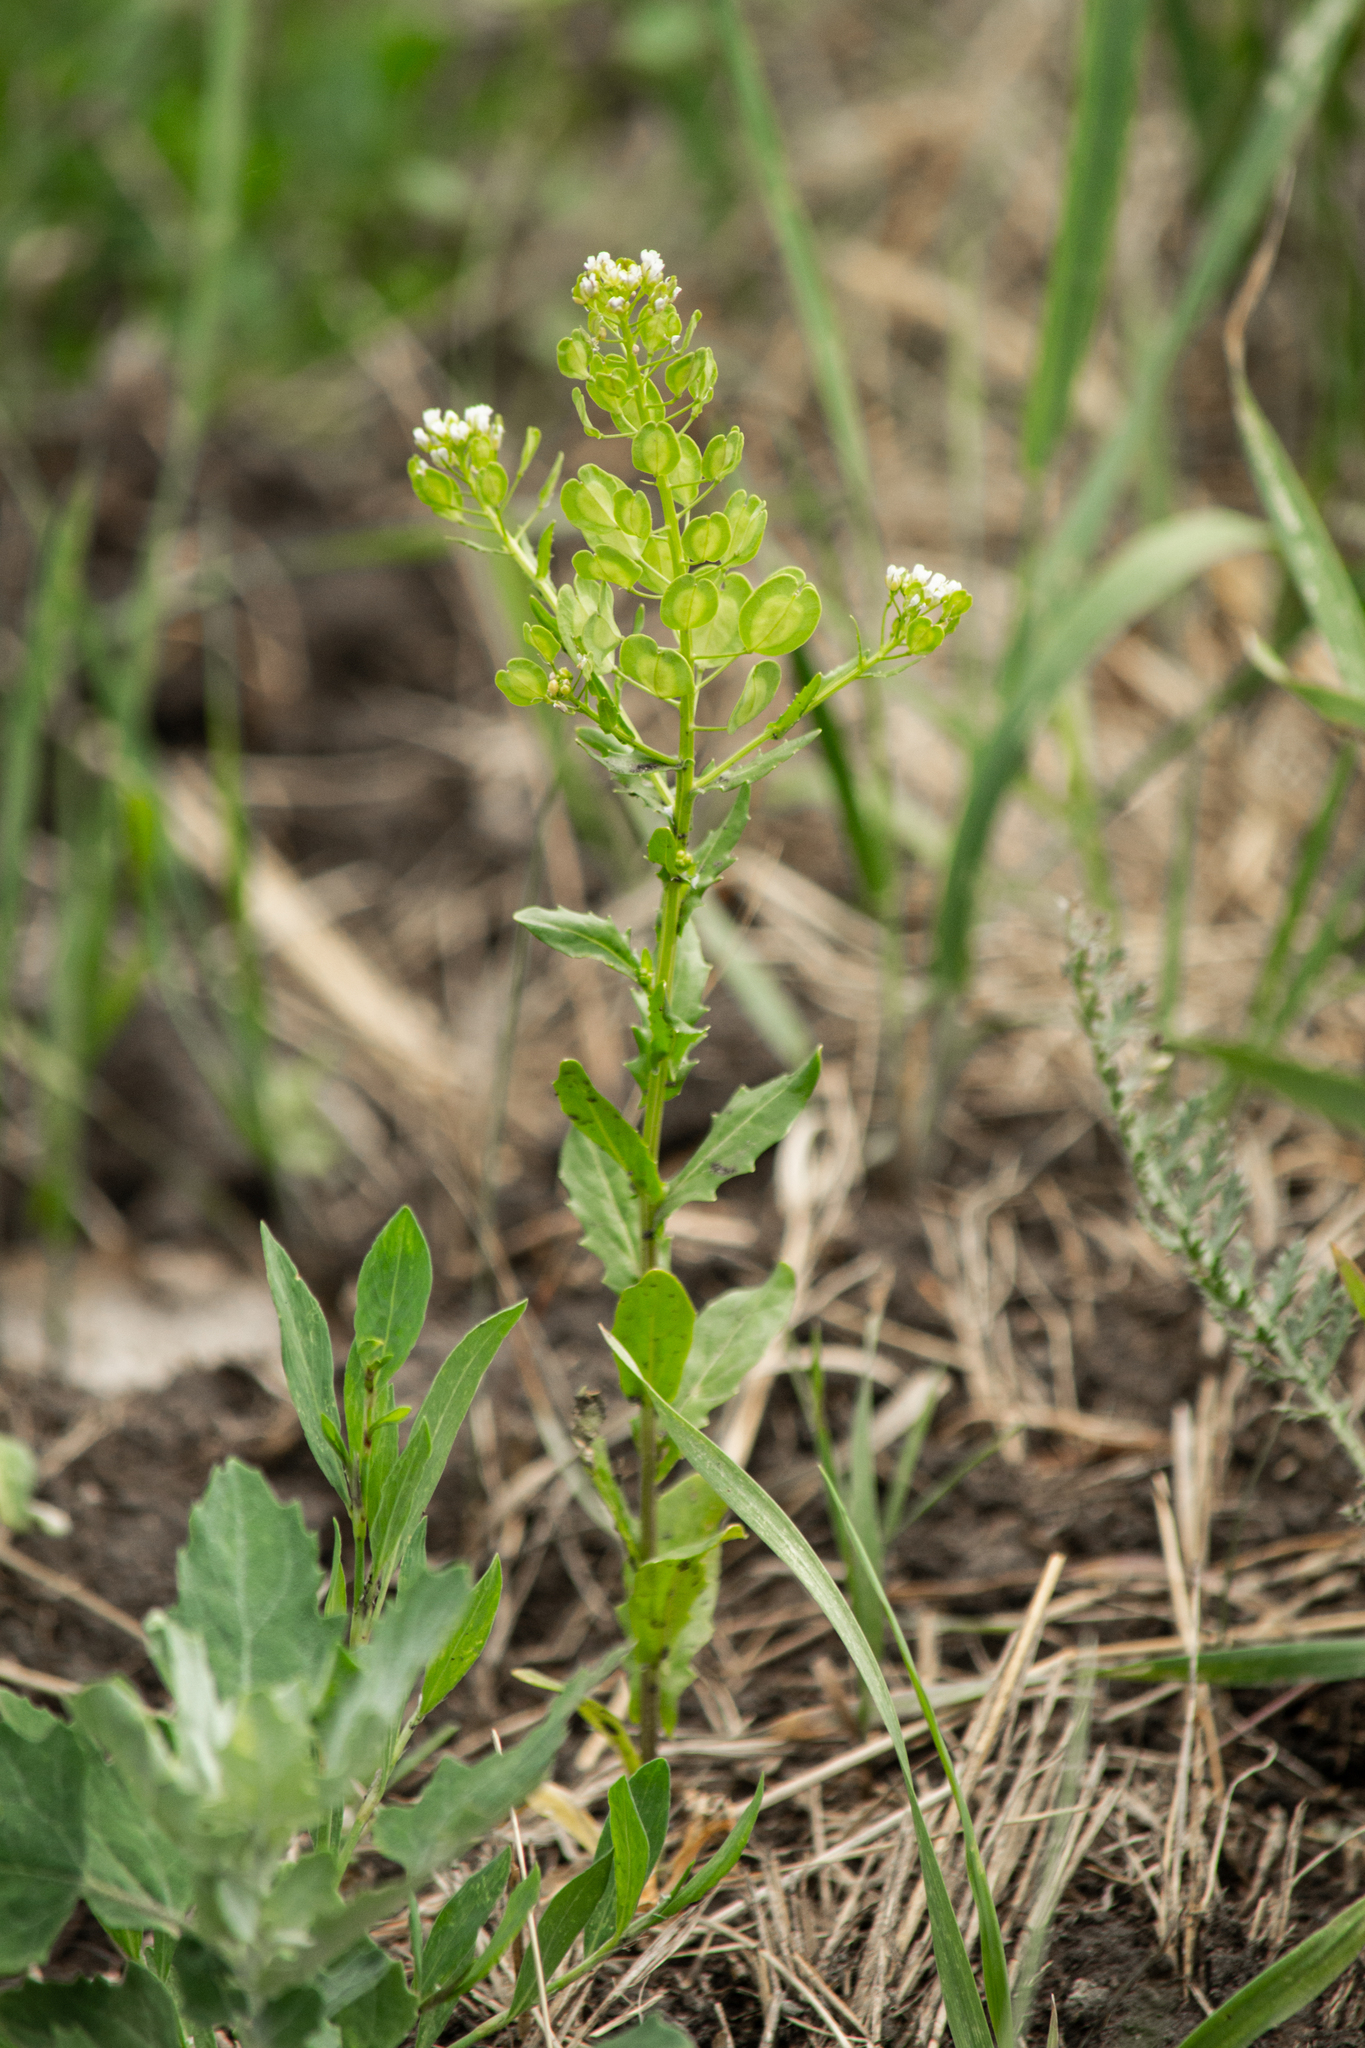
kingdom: Plantae
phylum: Tracheophyta
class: Magnoliopsida
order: Brassicales
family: Brassicaceae
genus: Thlaspi
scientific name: Thlaspi arvense
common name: Field pennycress
